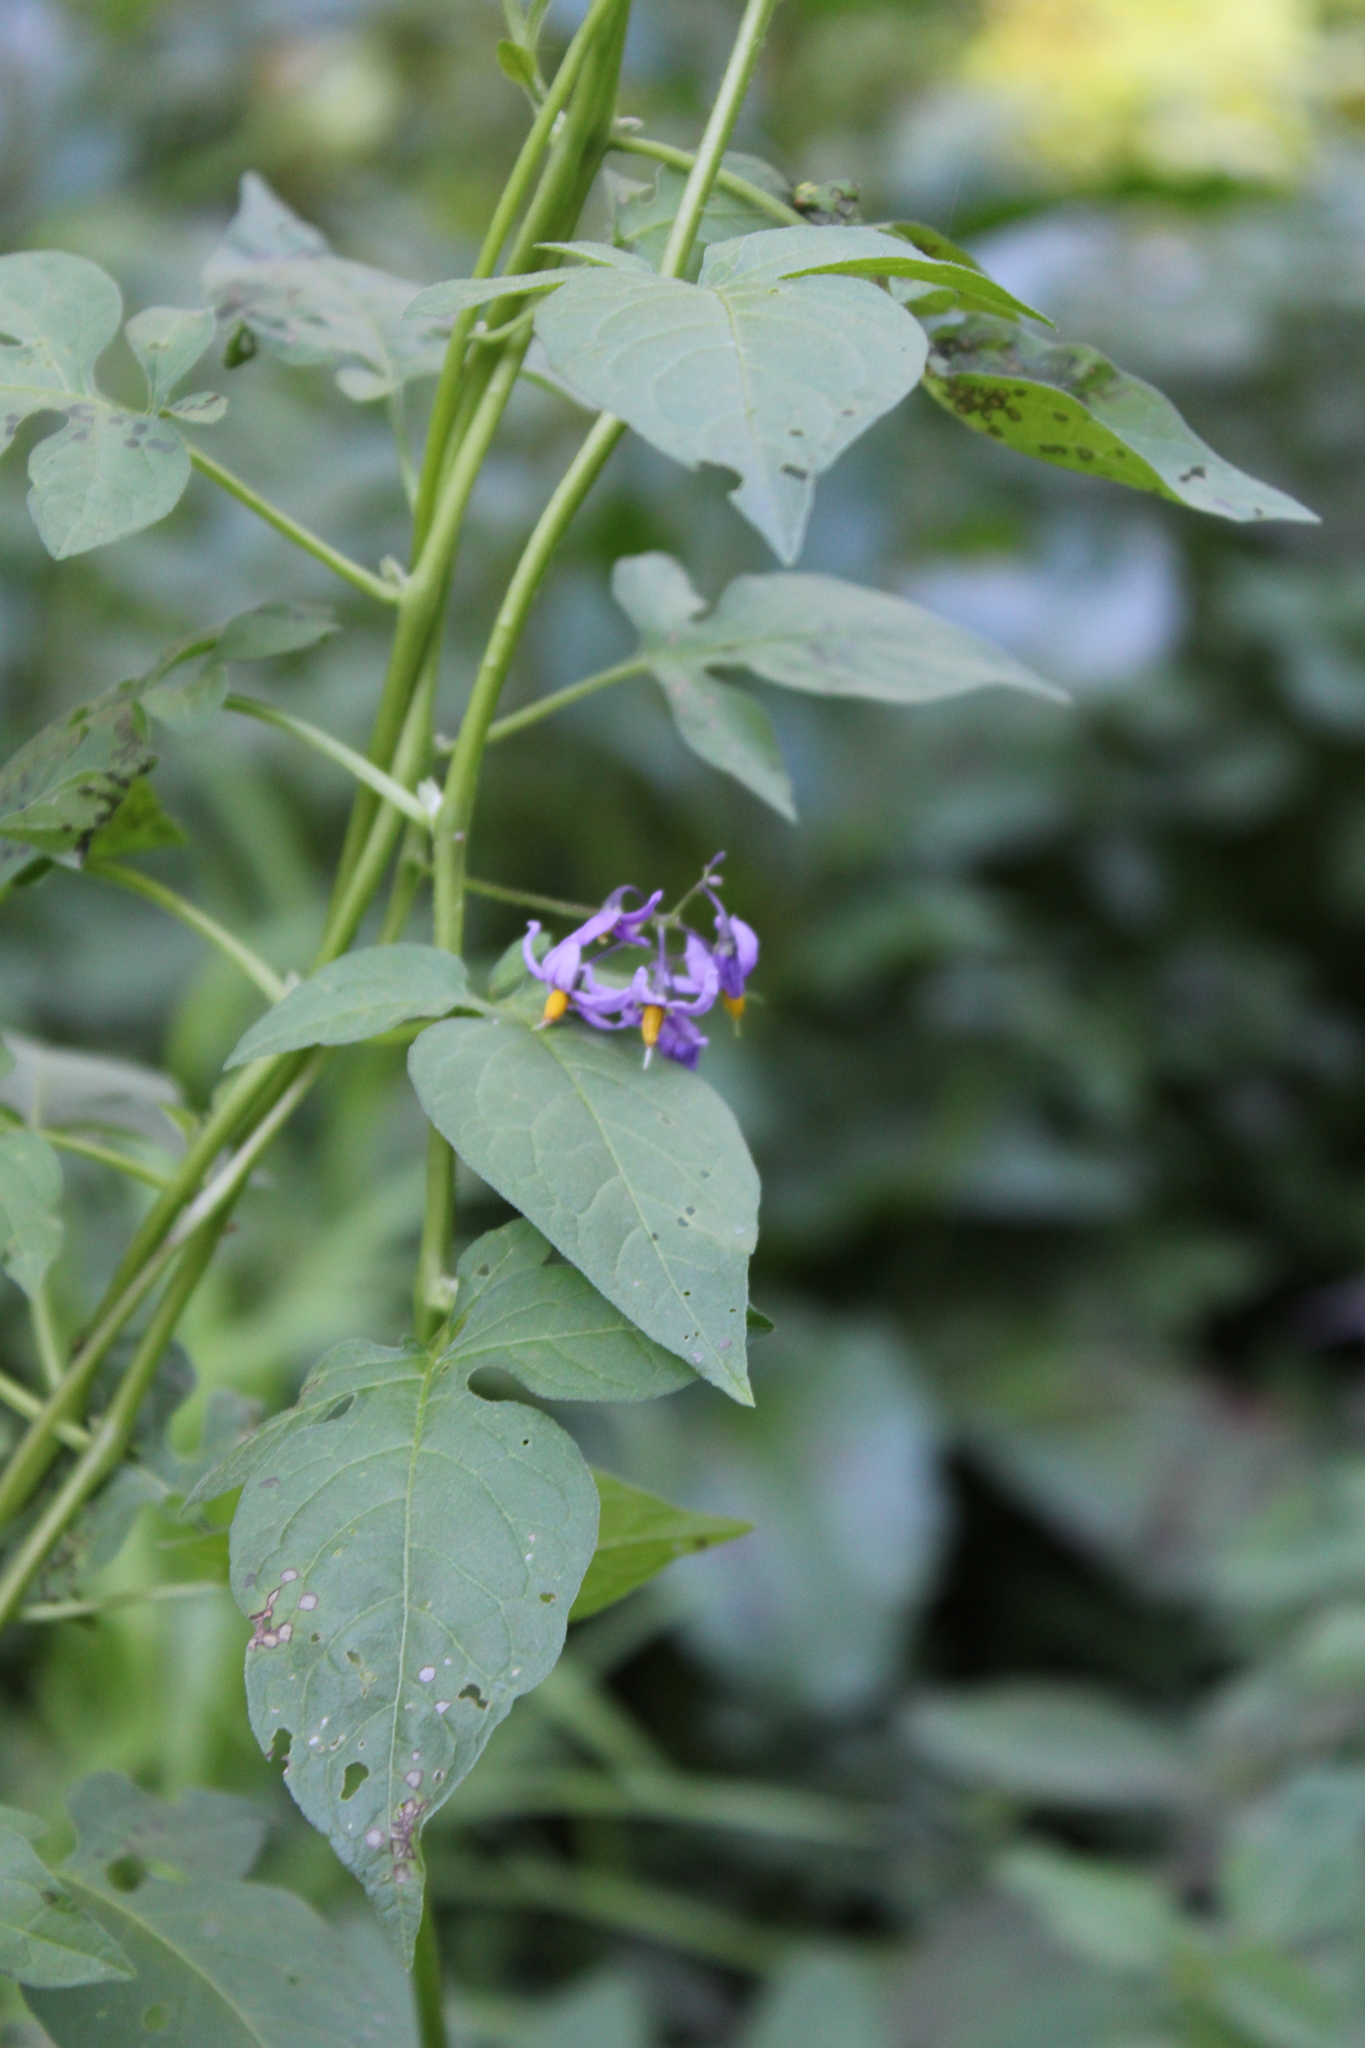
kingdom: Plantae
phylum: Tracheophyta
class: Magnoliopsida
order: Solanales
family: Solanaceae
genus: Solanum
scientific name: Solanum dulcamara
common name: Climbing nightshade
